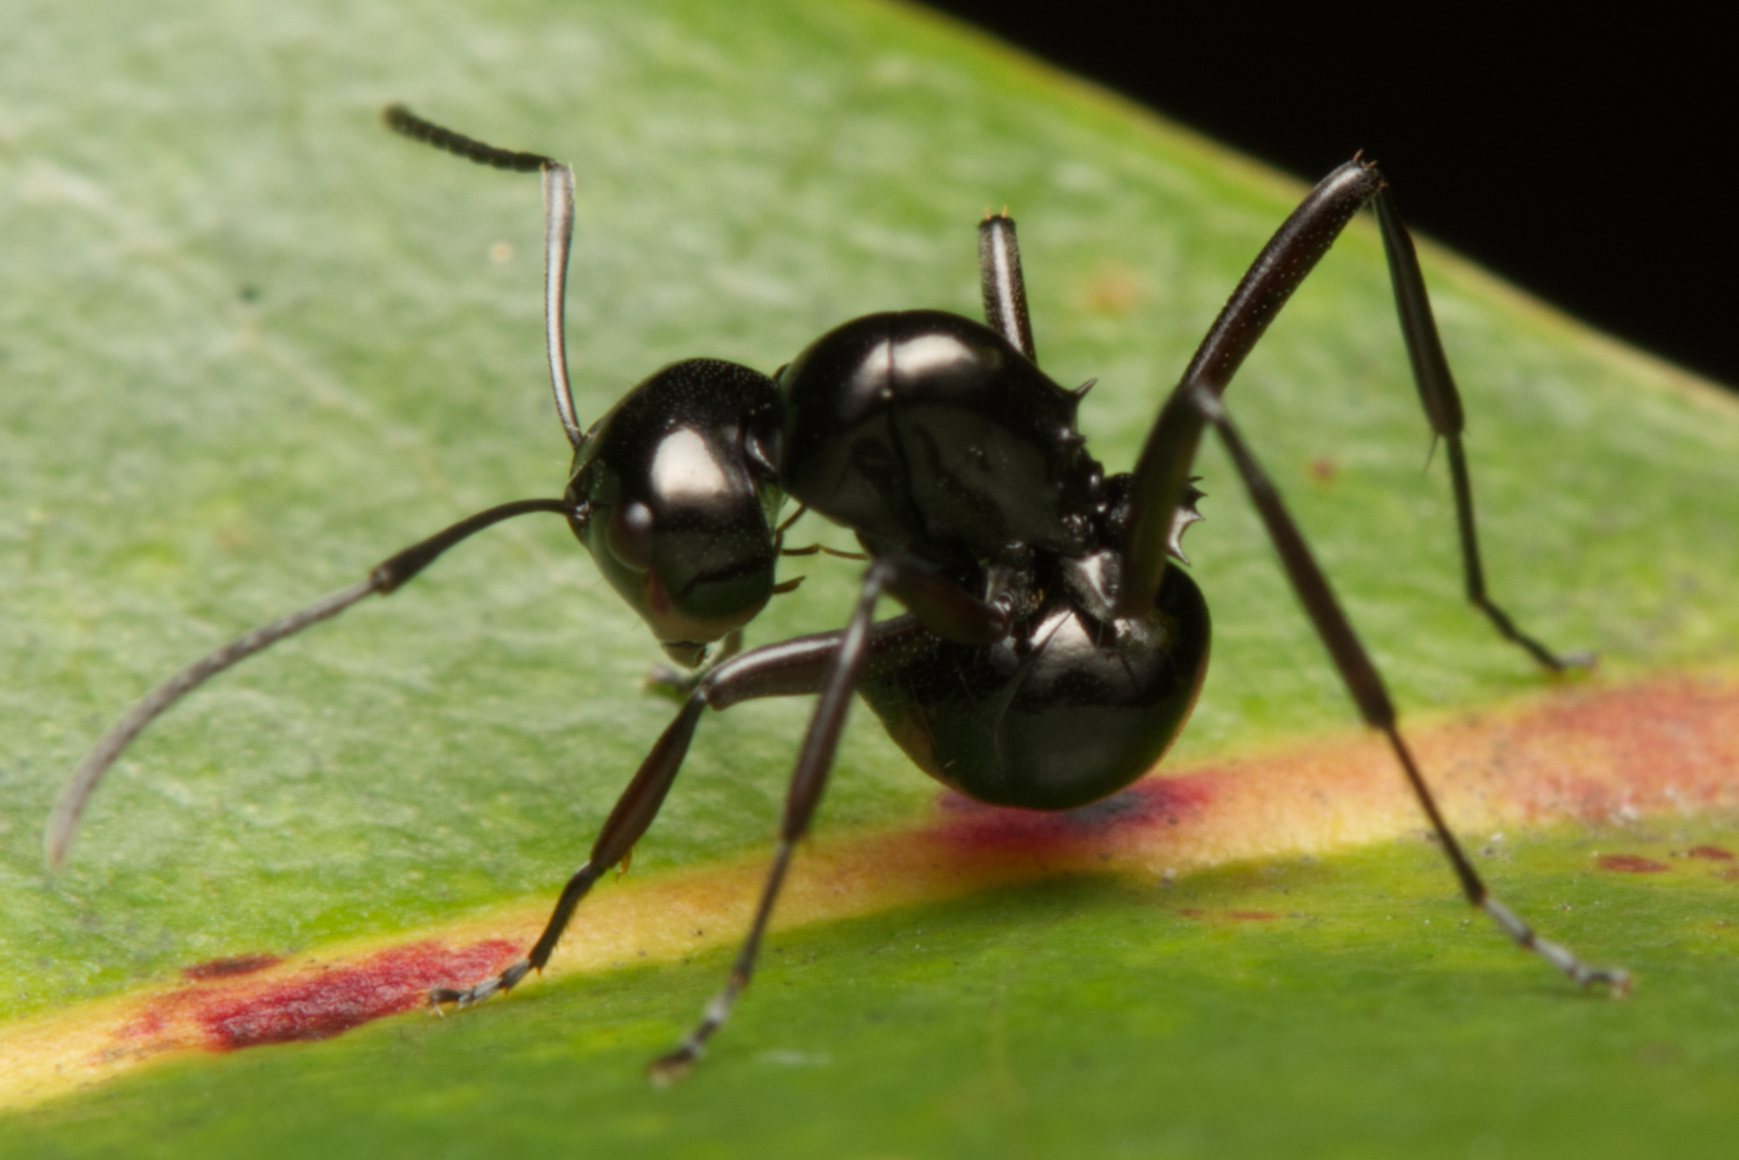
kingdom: Animalia
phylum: Arthropoda
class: Insecta
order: Hymenoptera
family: Formicidae
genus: Polyrhachis
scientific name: Polyrhachis australis
